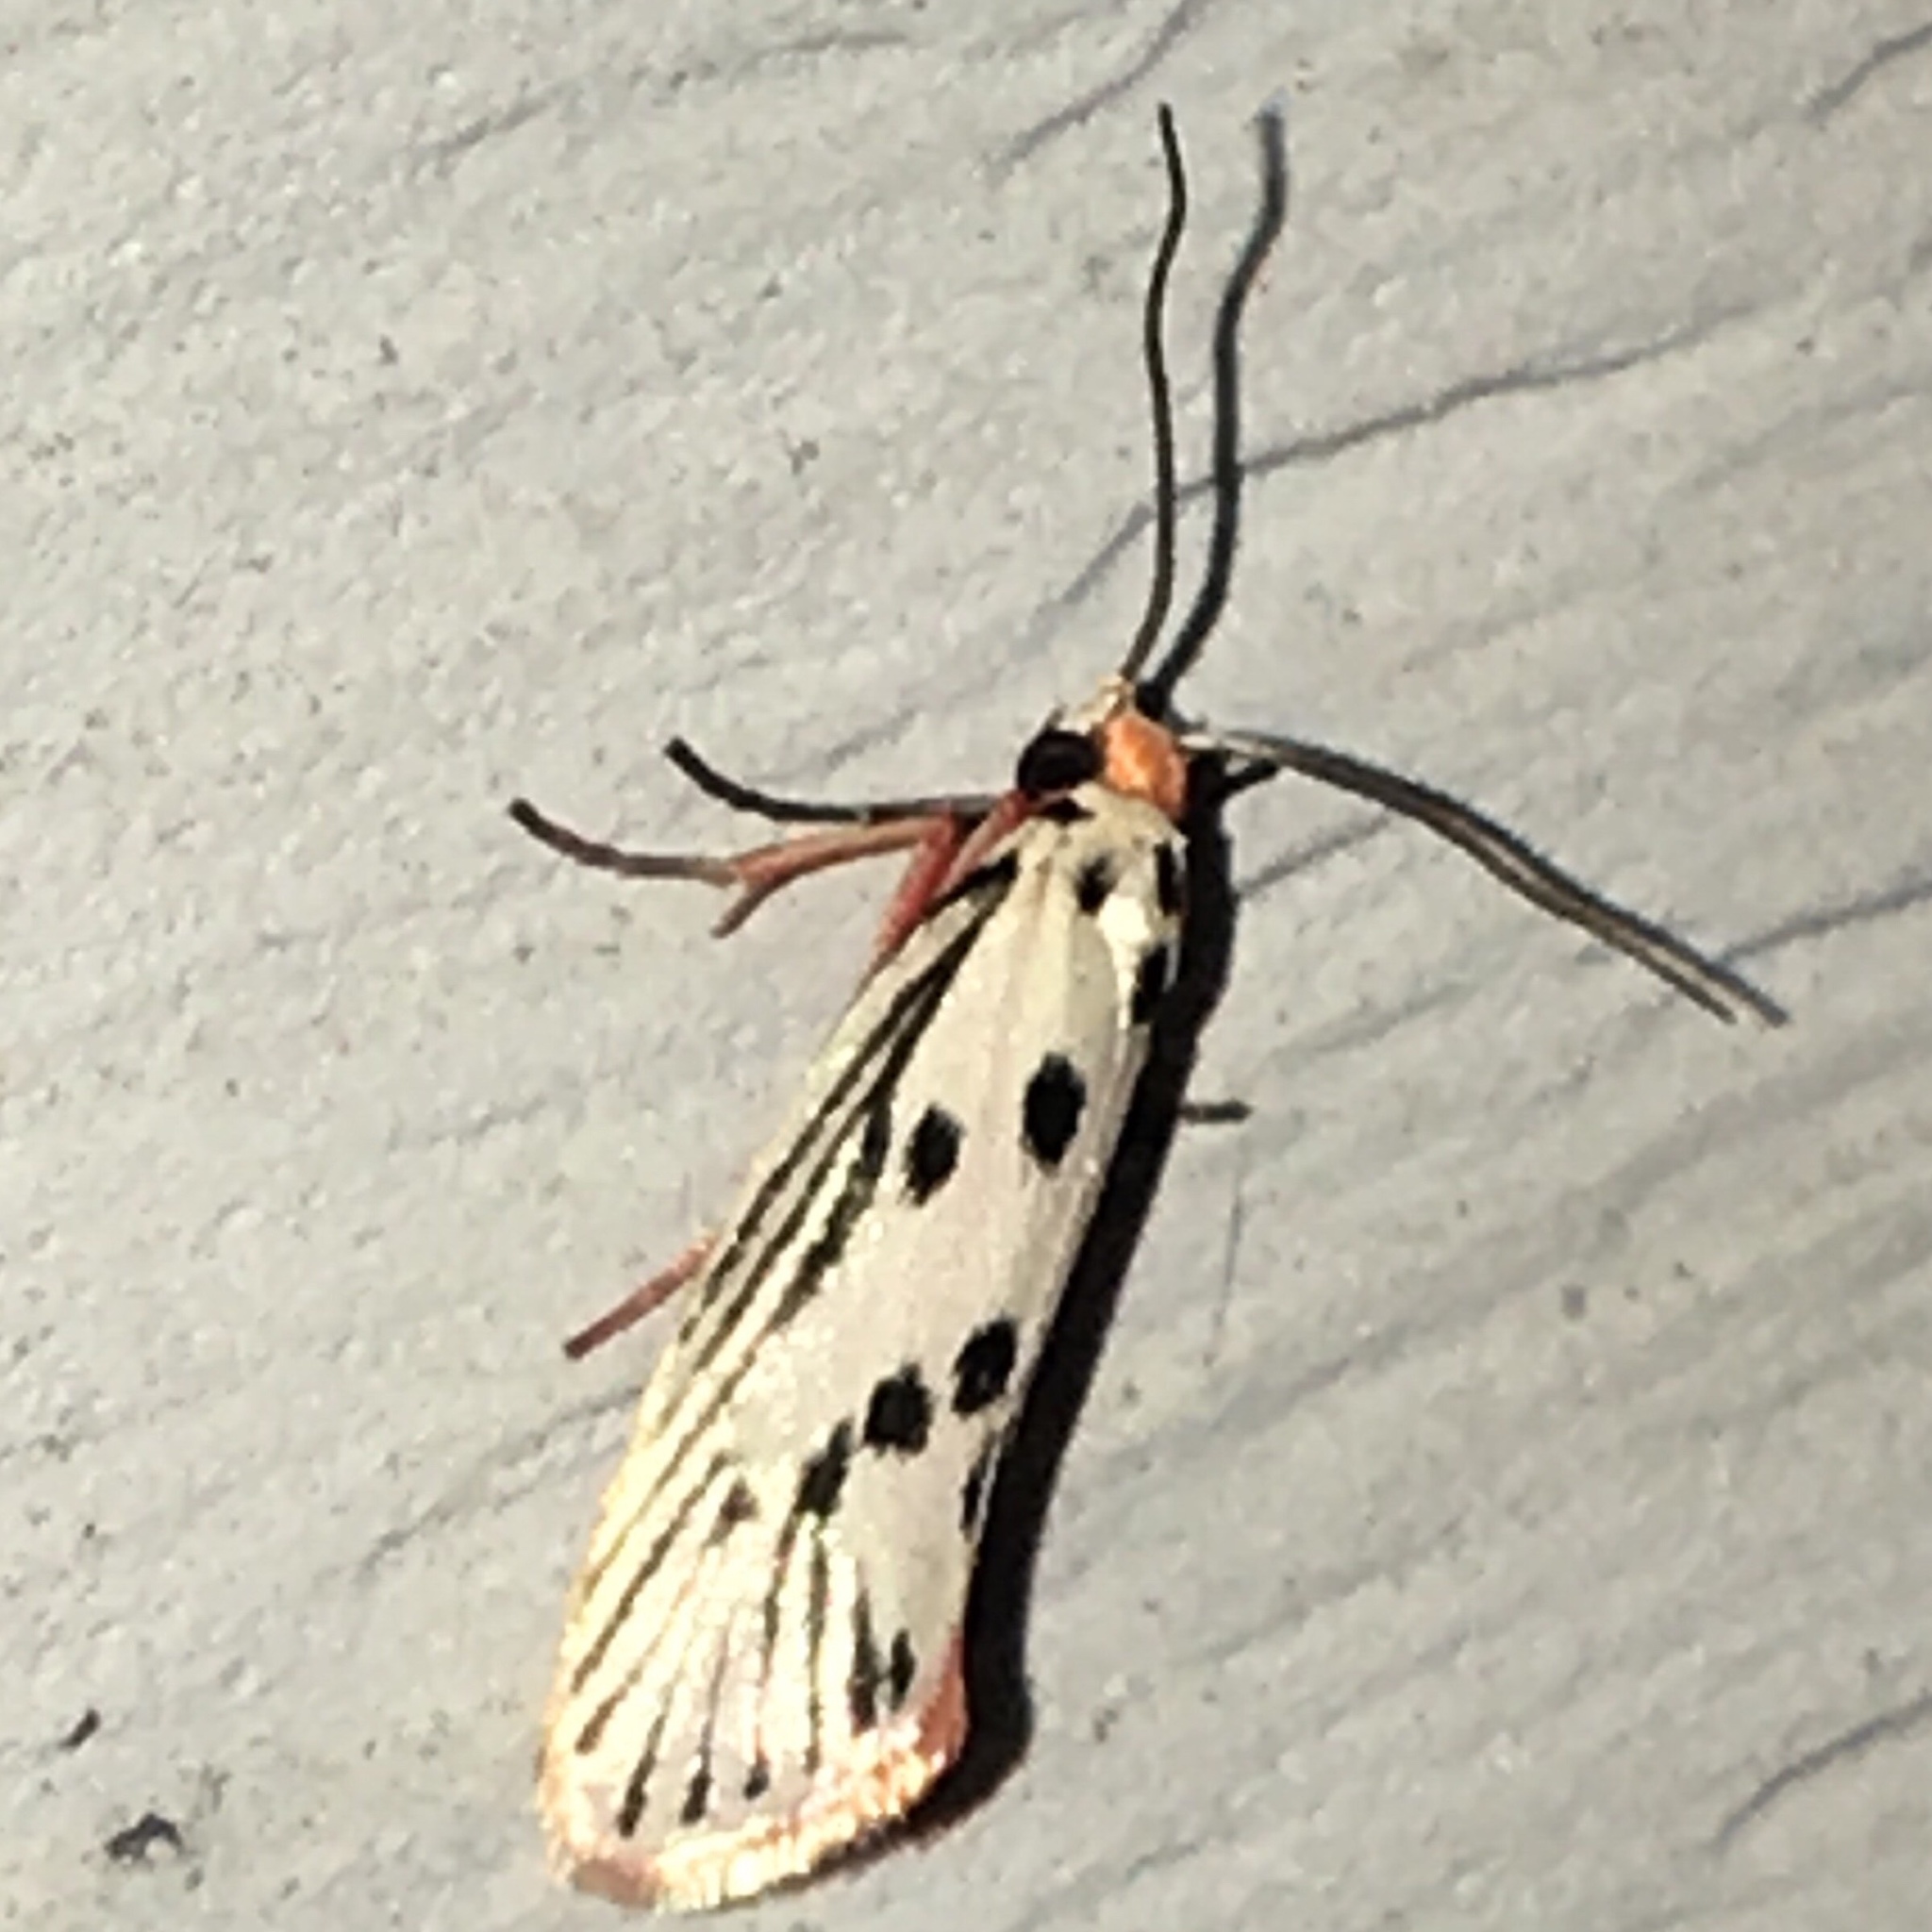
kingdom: Animalia
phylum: Arthropoda
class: Insecta
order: Lepidoptera
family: Lacturidae
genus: Lactura
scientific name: Lactura
